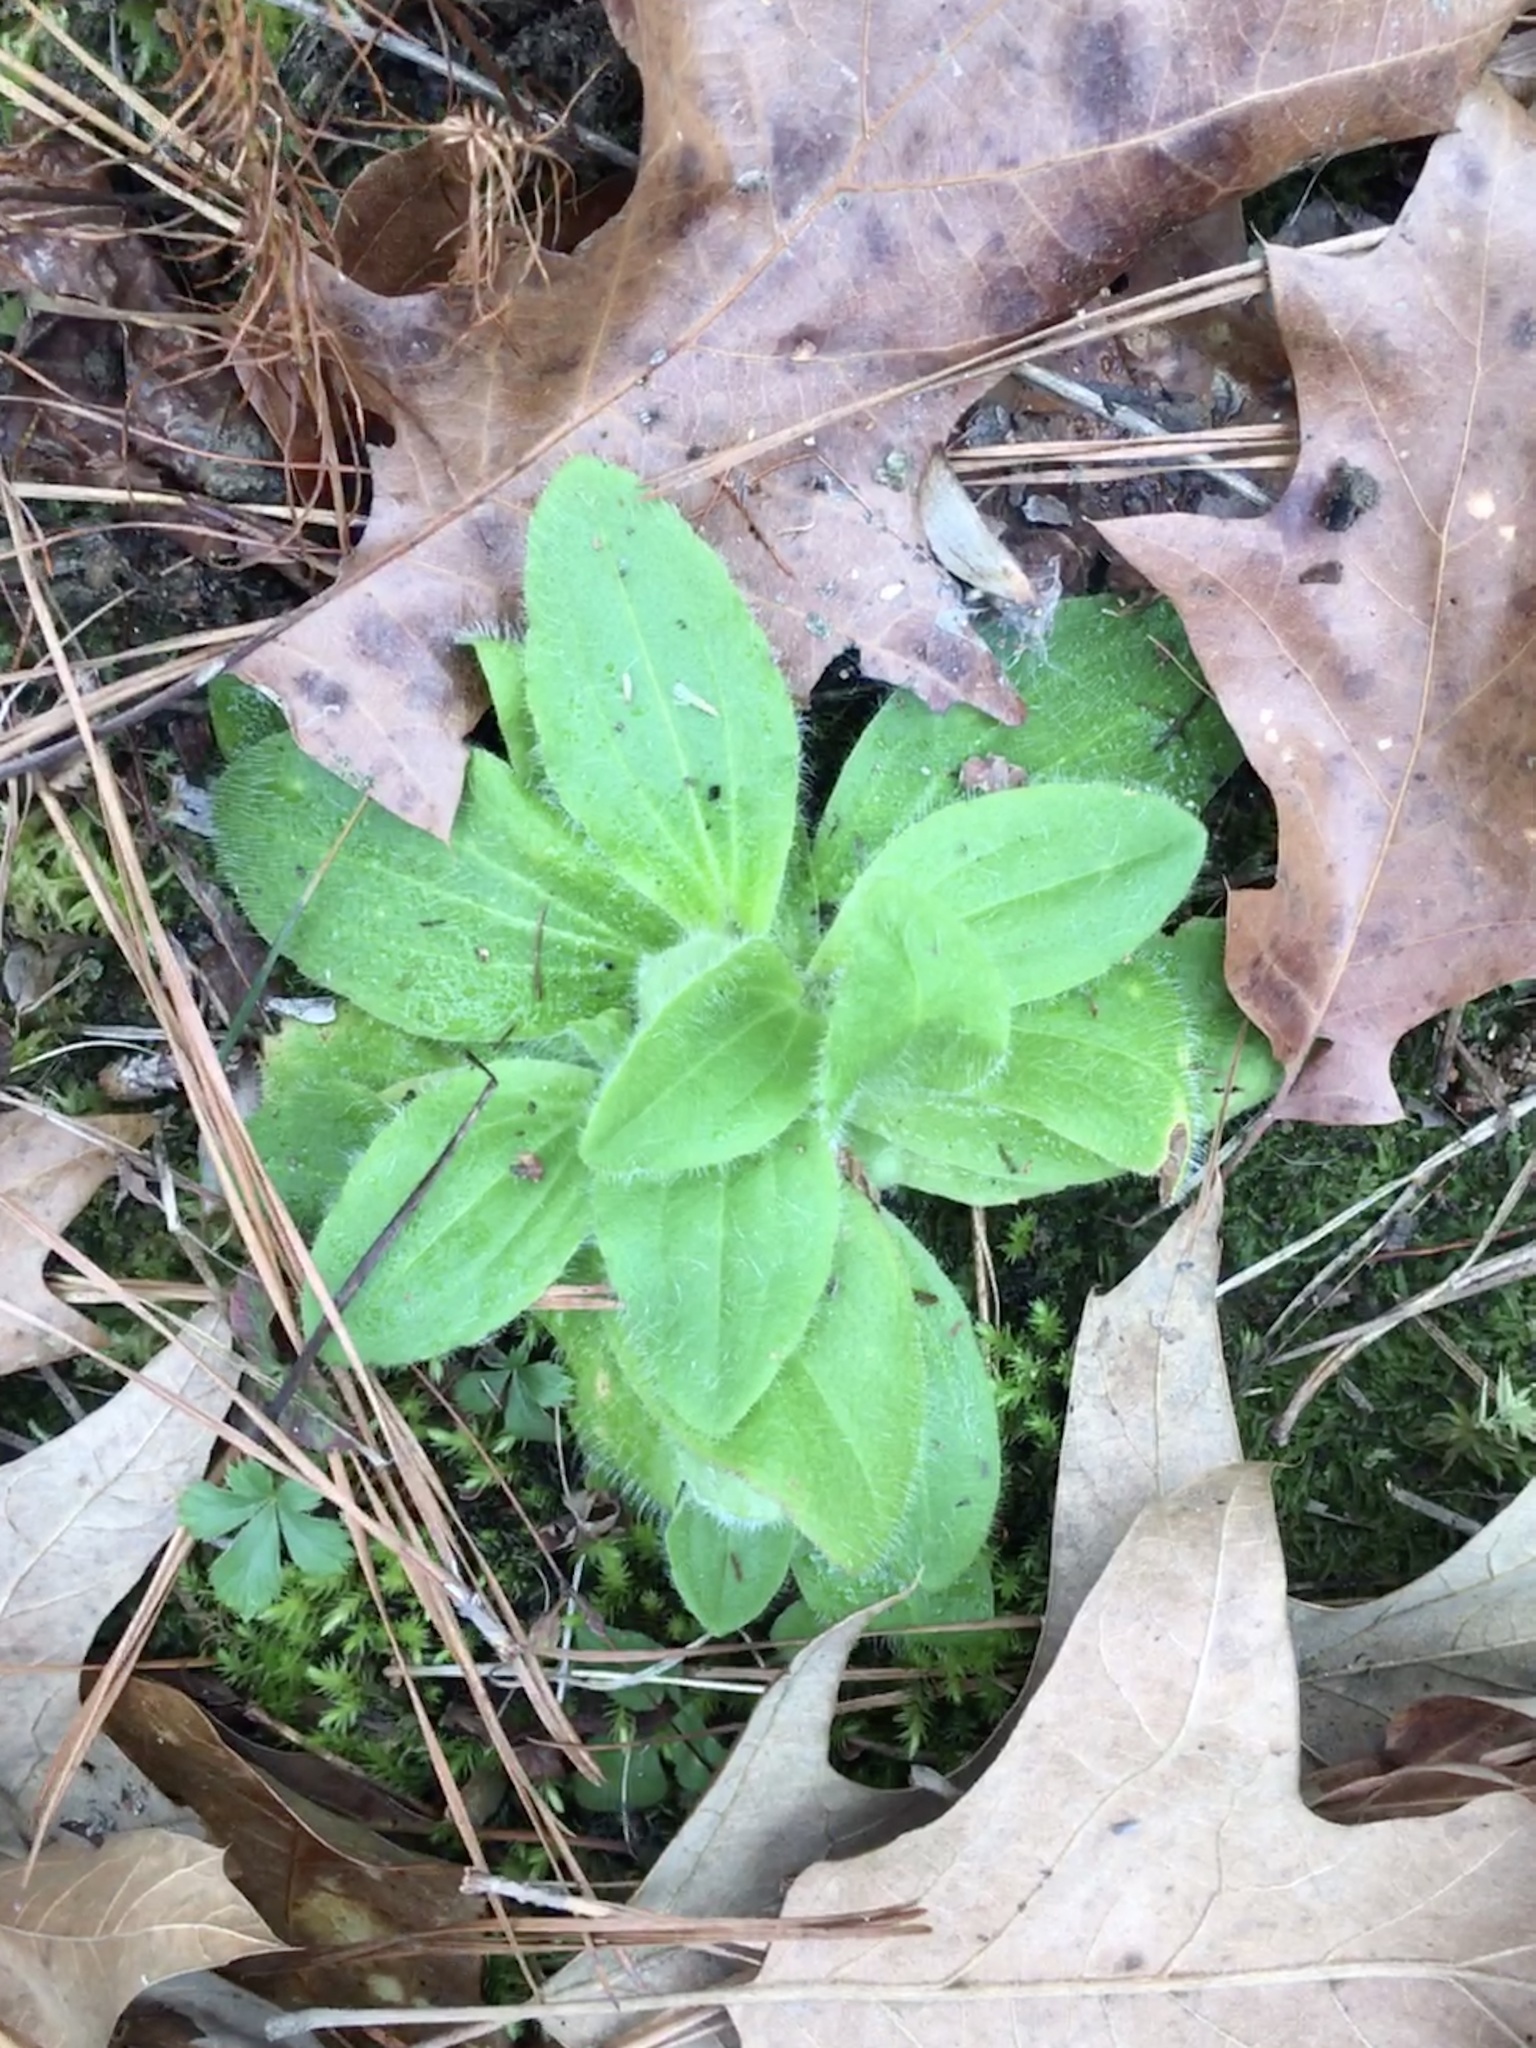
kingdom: Plantae
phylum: Tracheophyta
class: Magnoliopsida
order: Lamiales
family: Plantaginaceae
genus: Plantago
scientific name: Plantago virginica
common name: Hoary plantain
